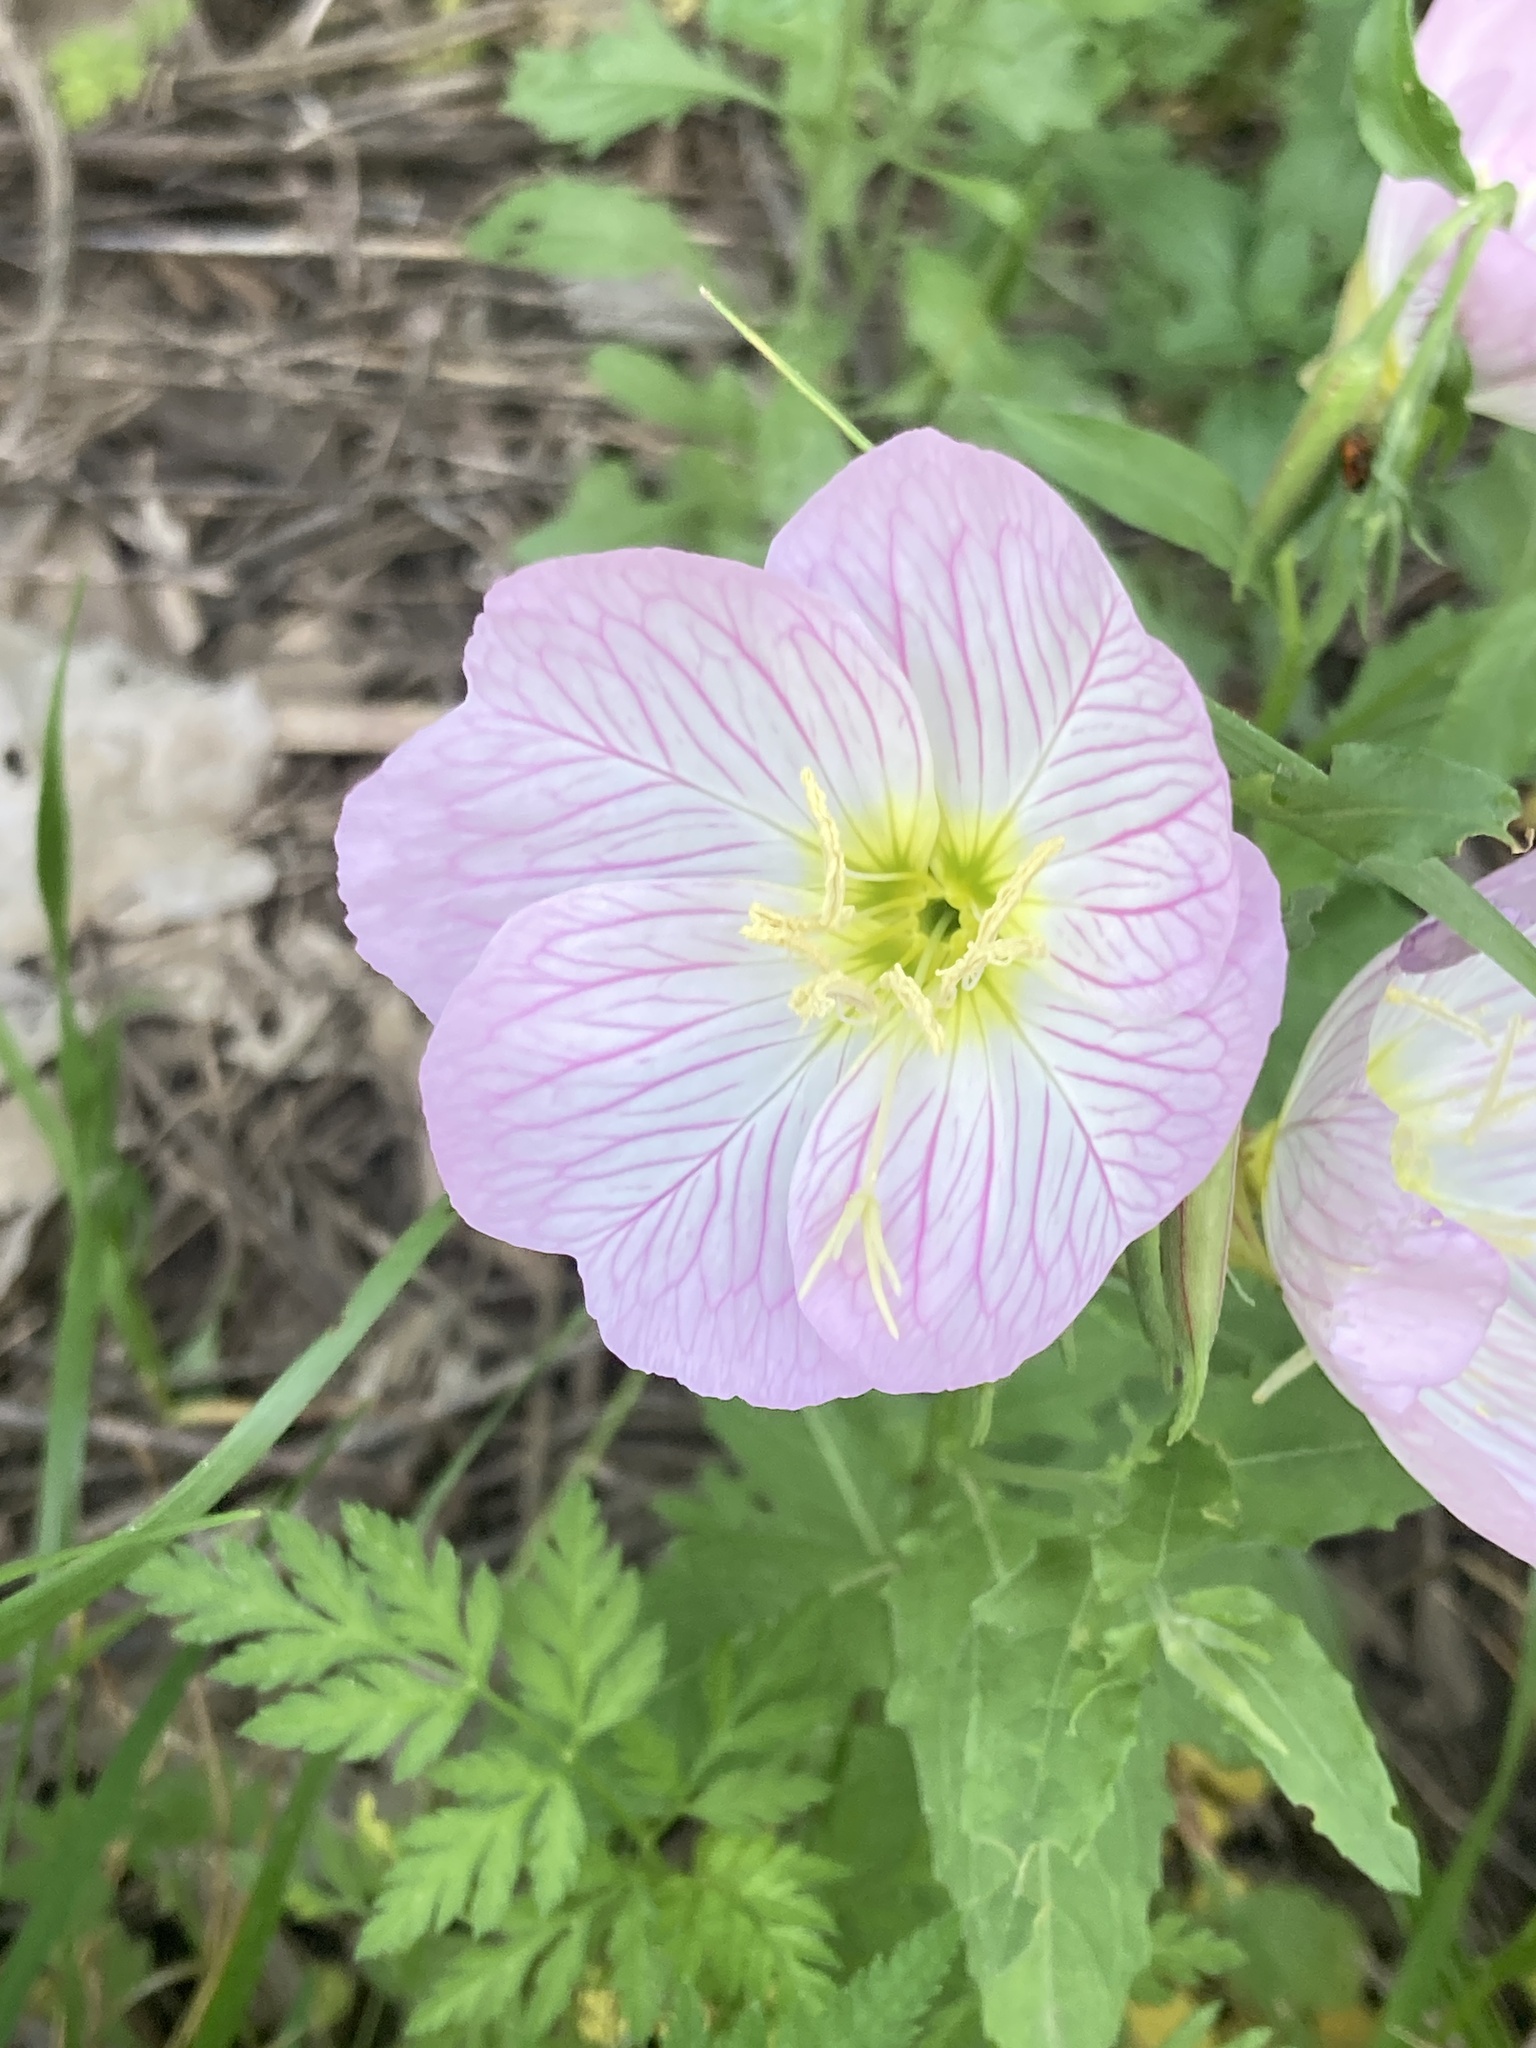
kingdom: Plantae
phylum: Tracheophyta
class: Magnoliopsida
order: Myrtales
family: Onagraceae
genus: Oenothera
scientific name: Oenothera speciosa
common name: White evening-primrose
